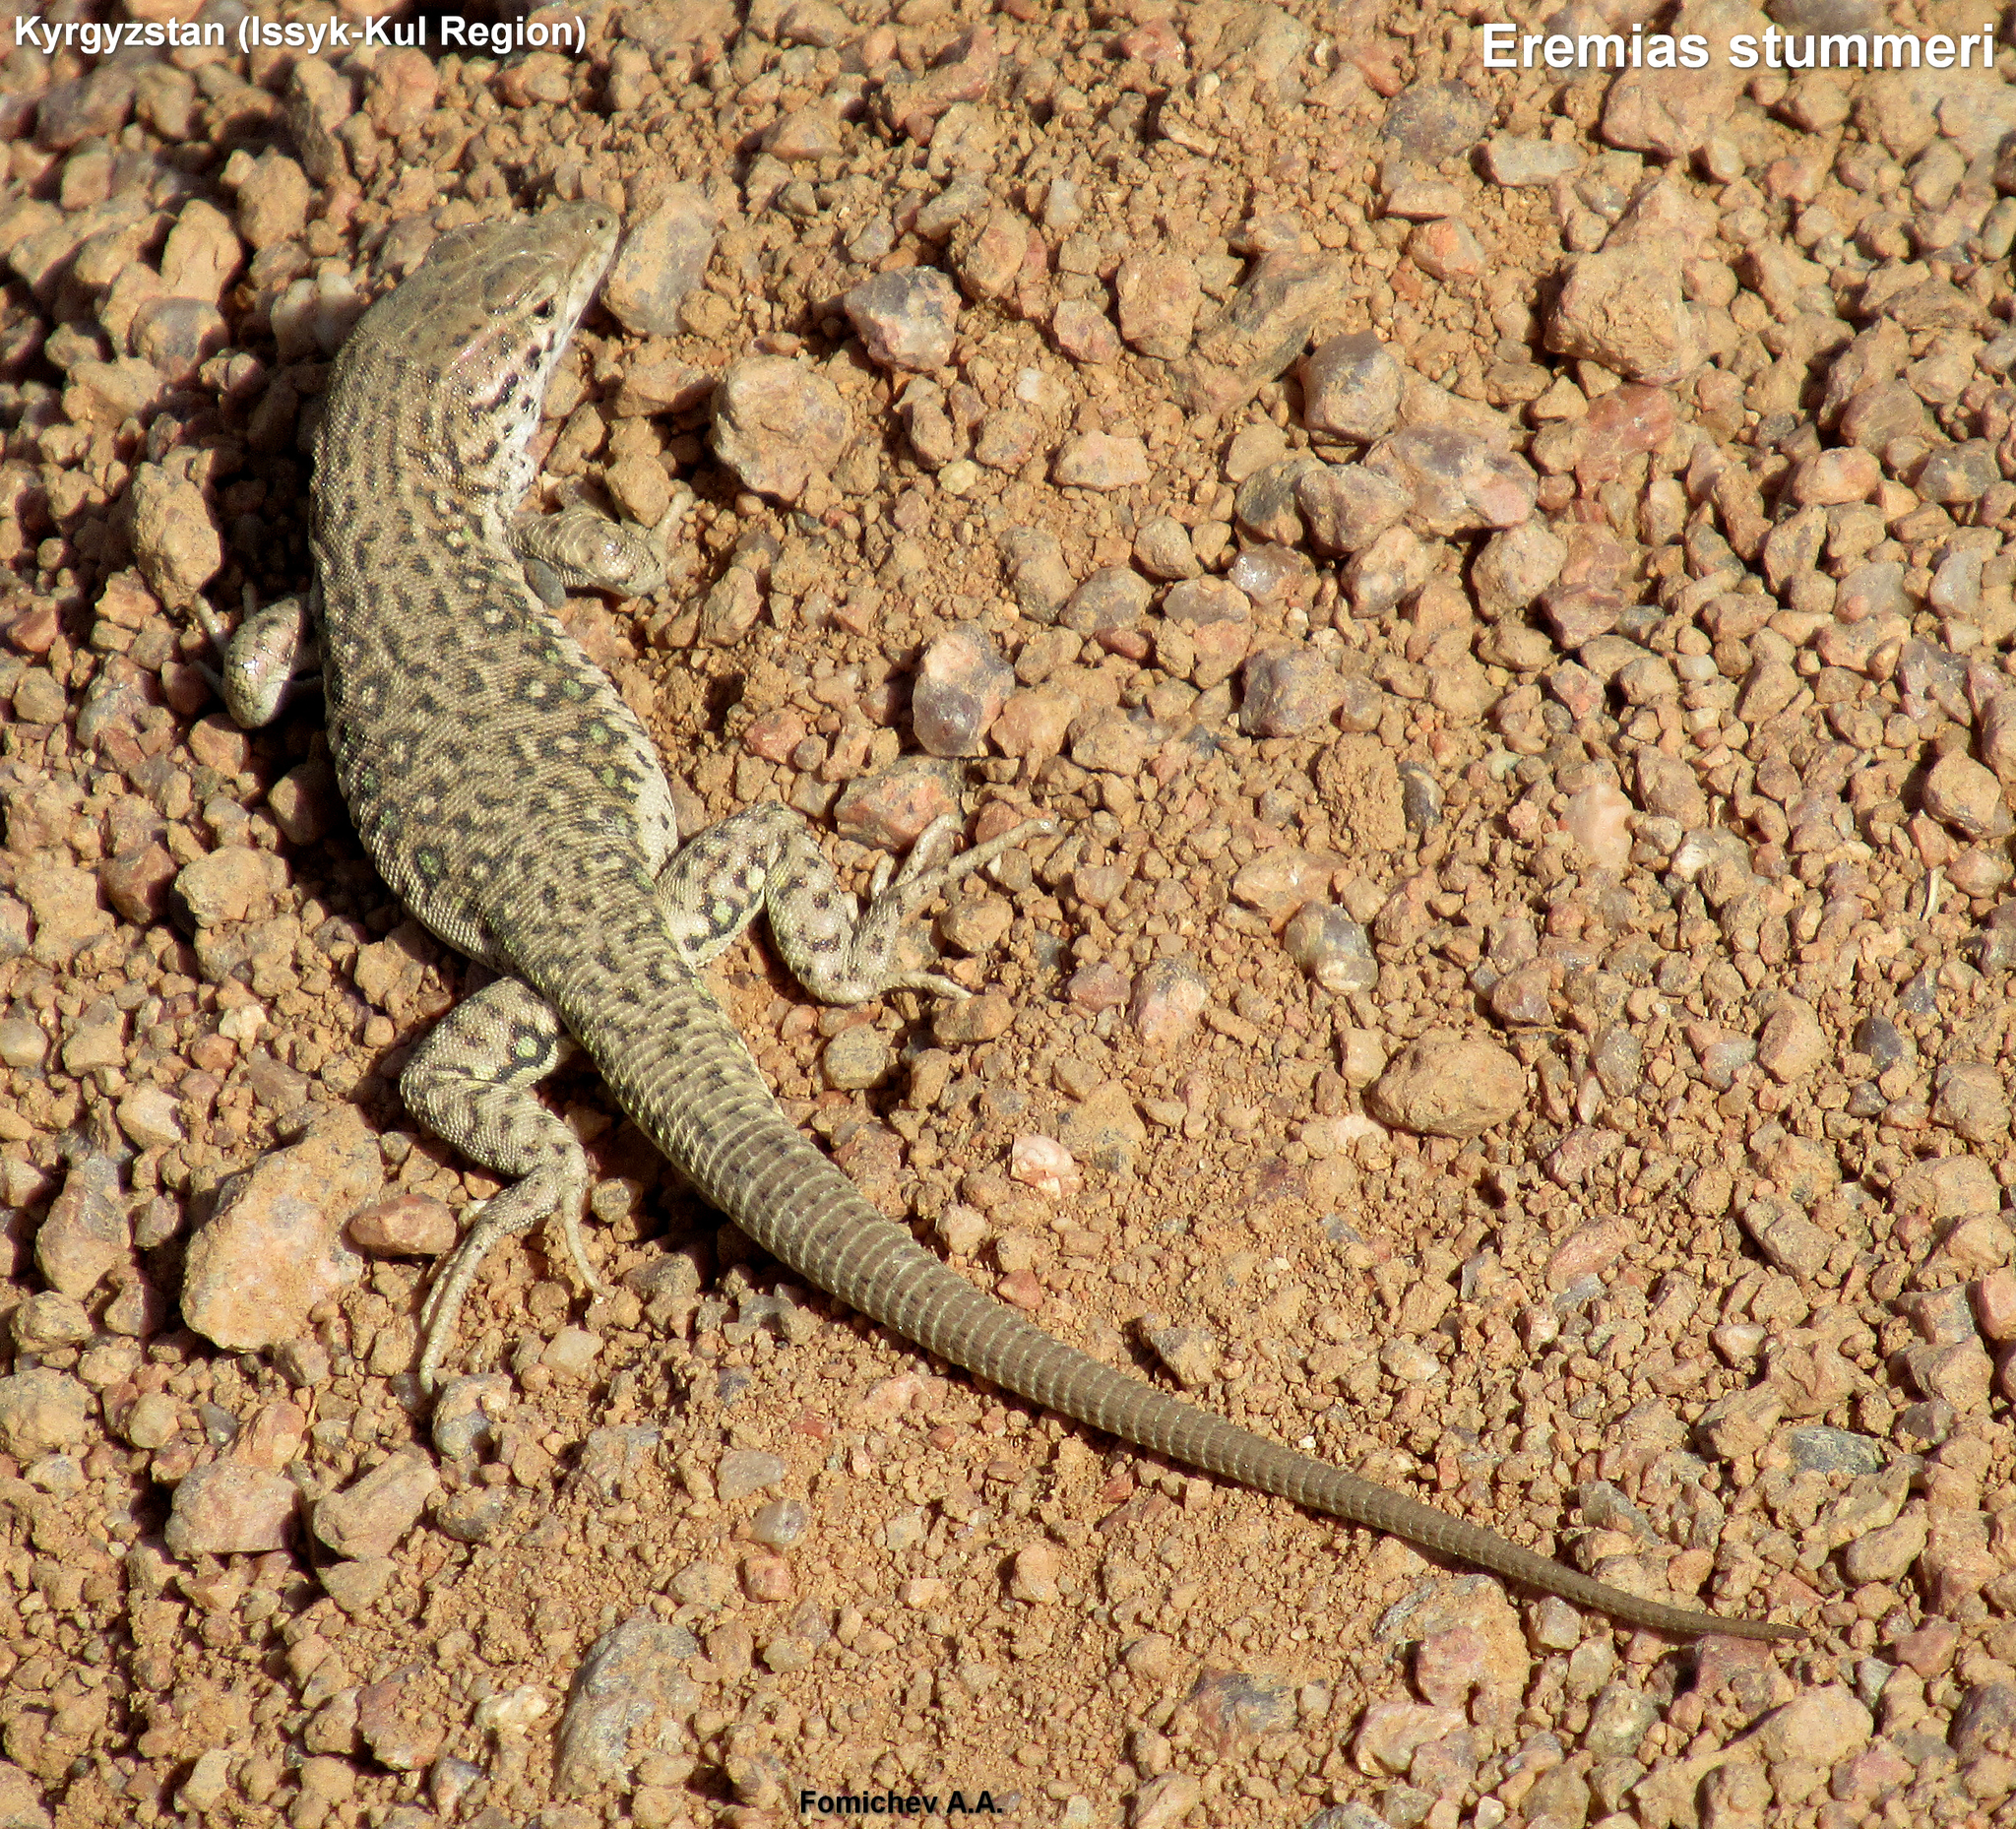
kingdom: Animalia
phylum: Chordata
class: Squamata
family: Lacertidae
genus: Eremias
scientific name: Eremias stummeri
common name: Stummer’s racerunner
